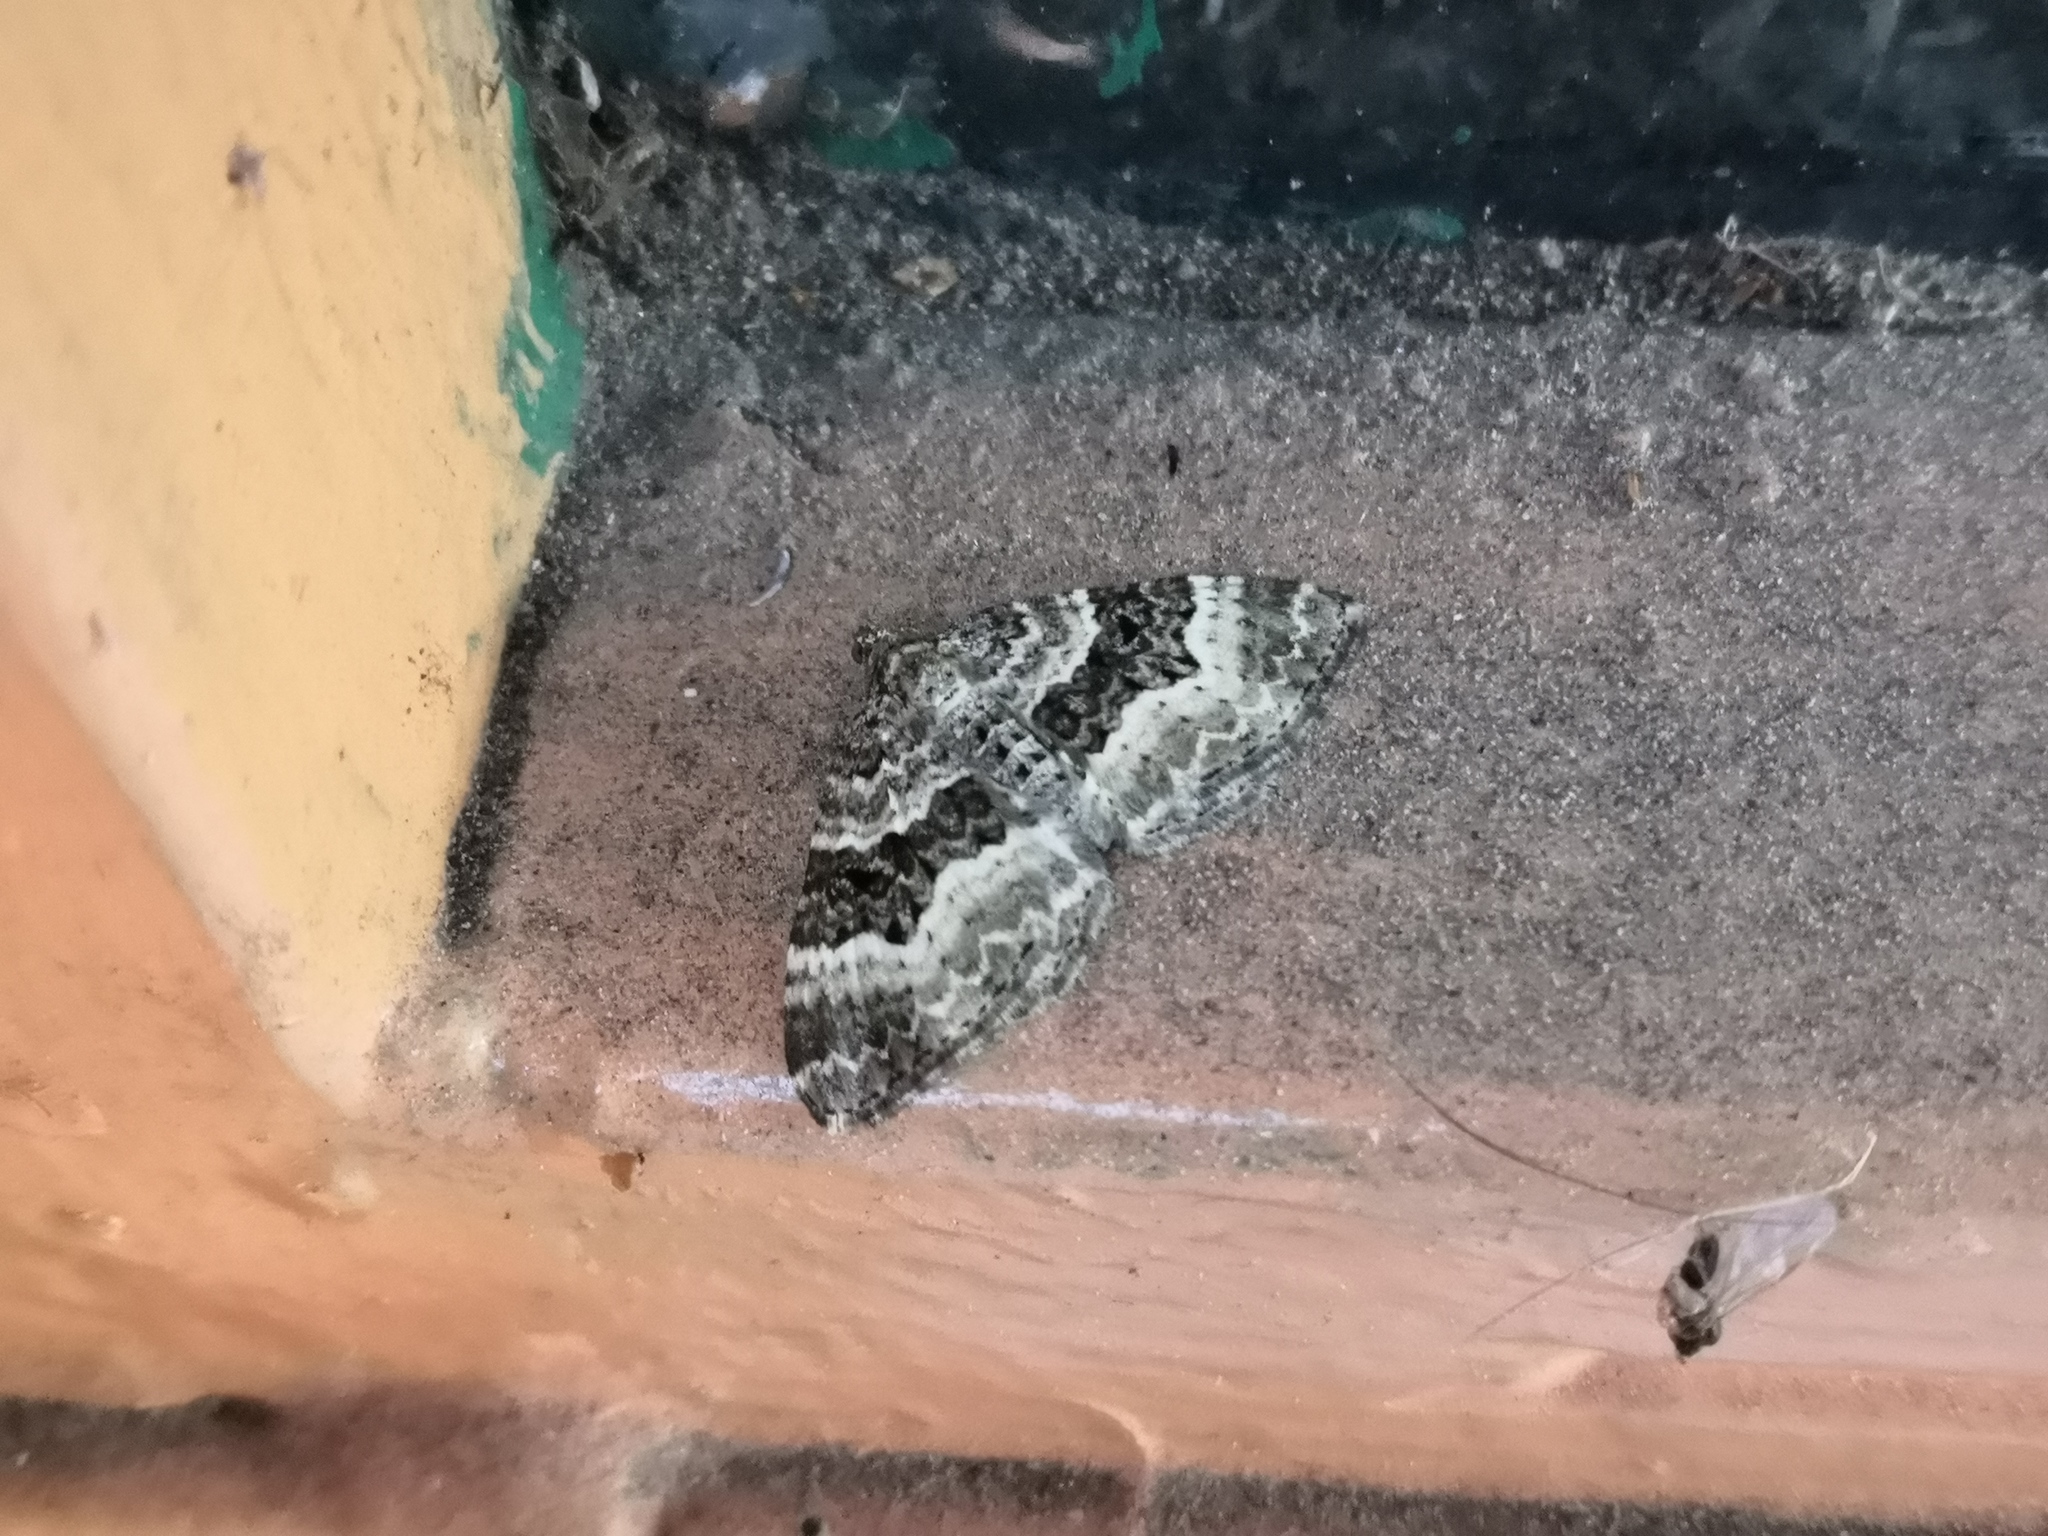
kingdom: Animalia
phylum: Arthropoda
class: Insecta
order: Lepidoptera
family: Geometridae
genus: Epirrhoe
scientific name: Epirrhoe alternata
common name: Common carpet
